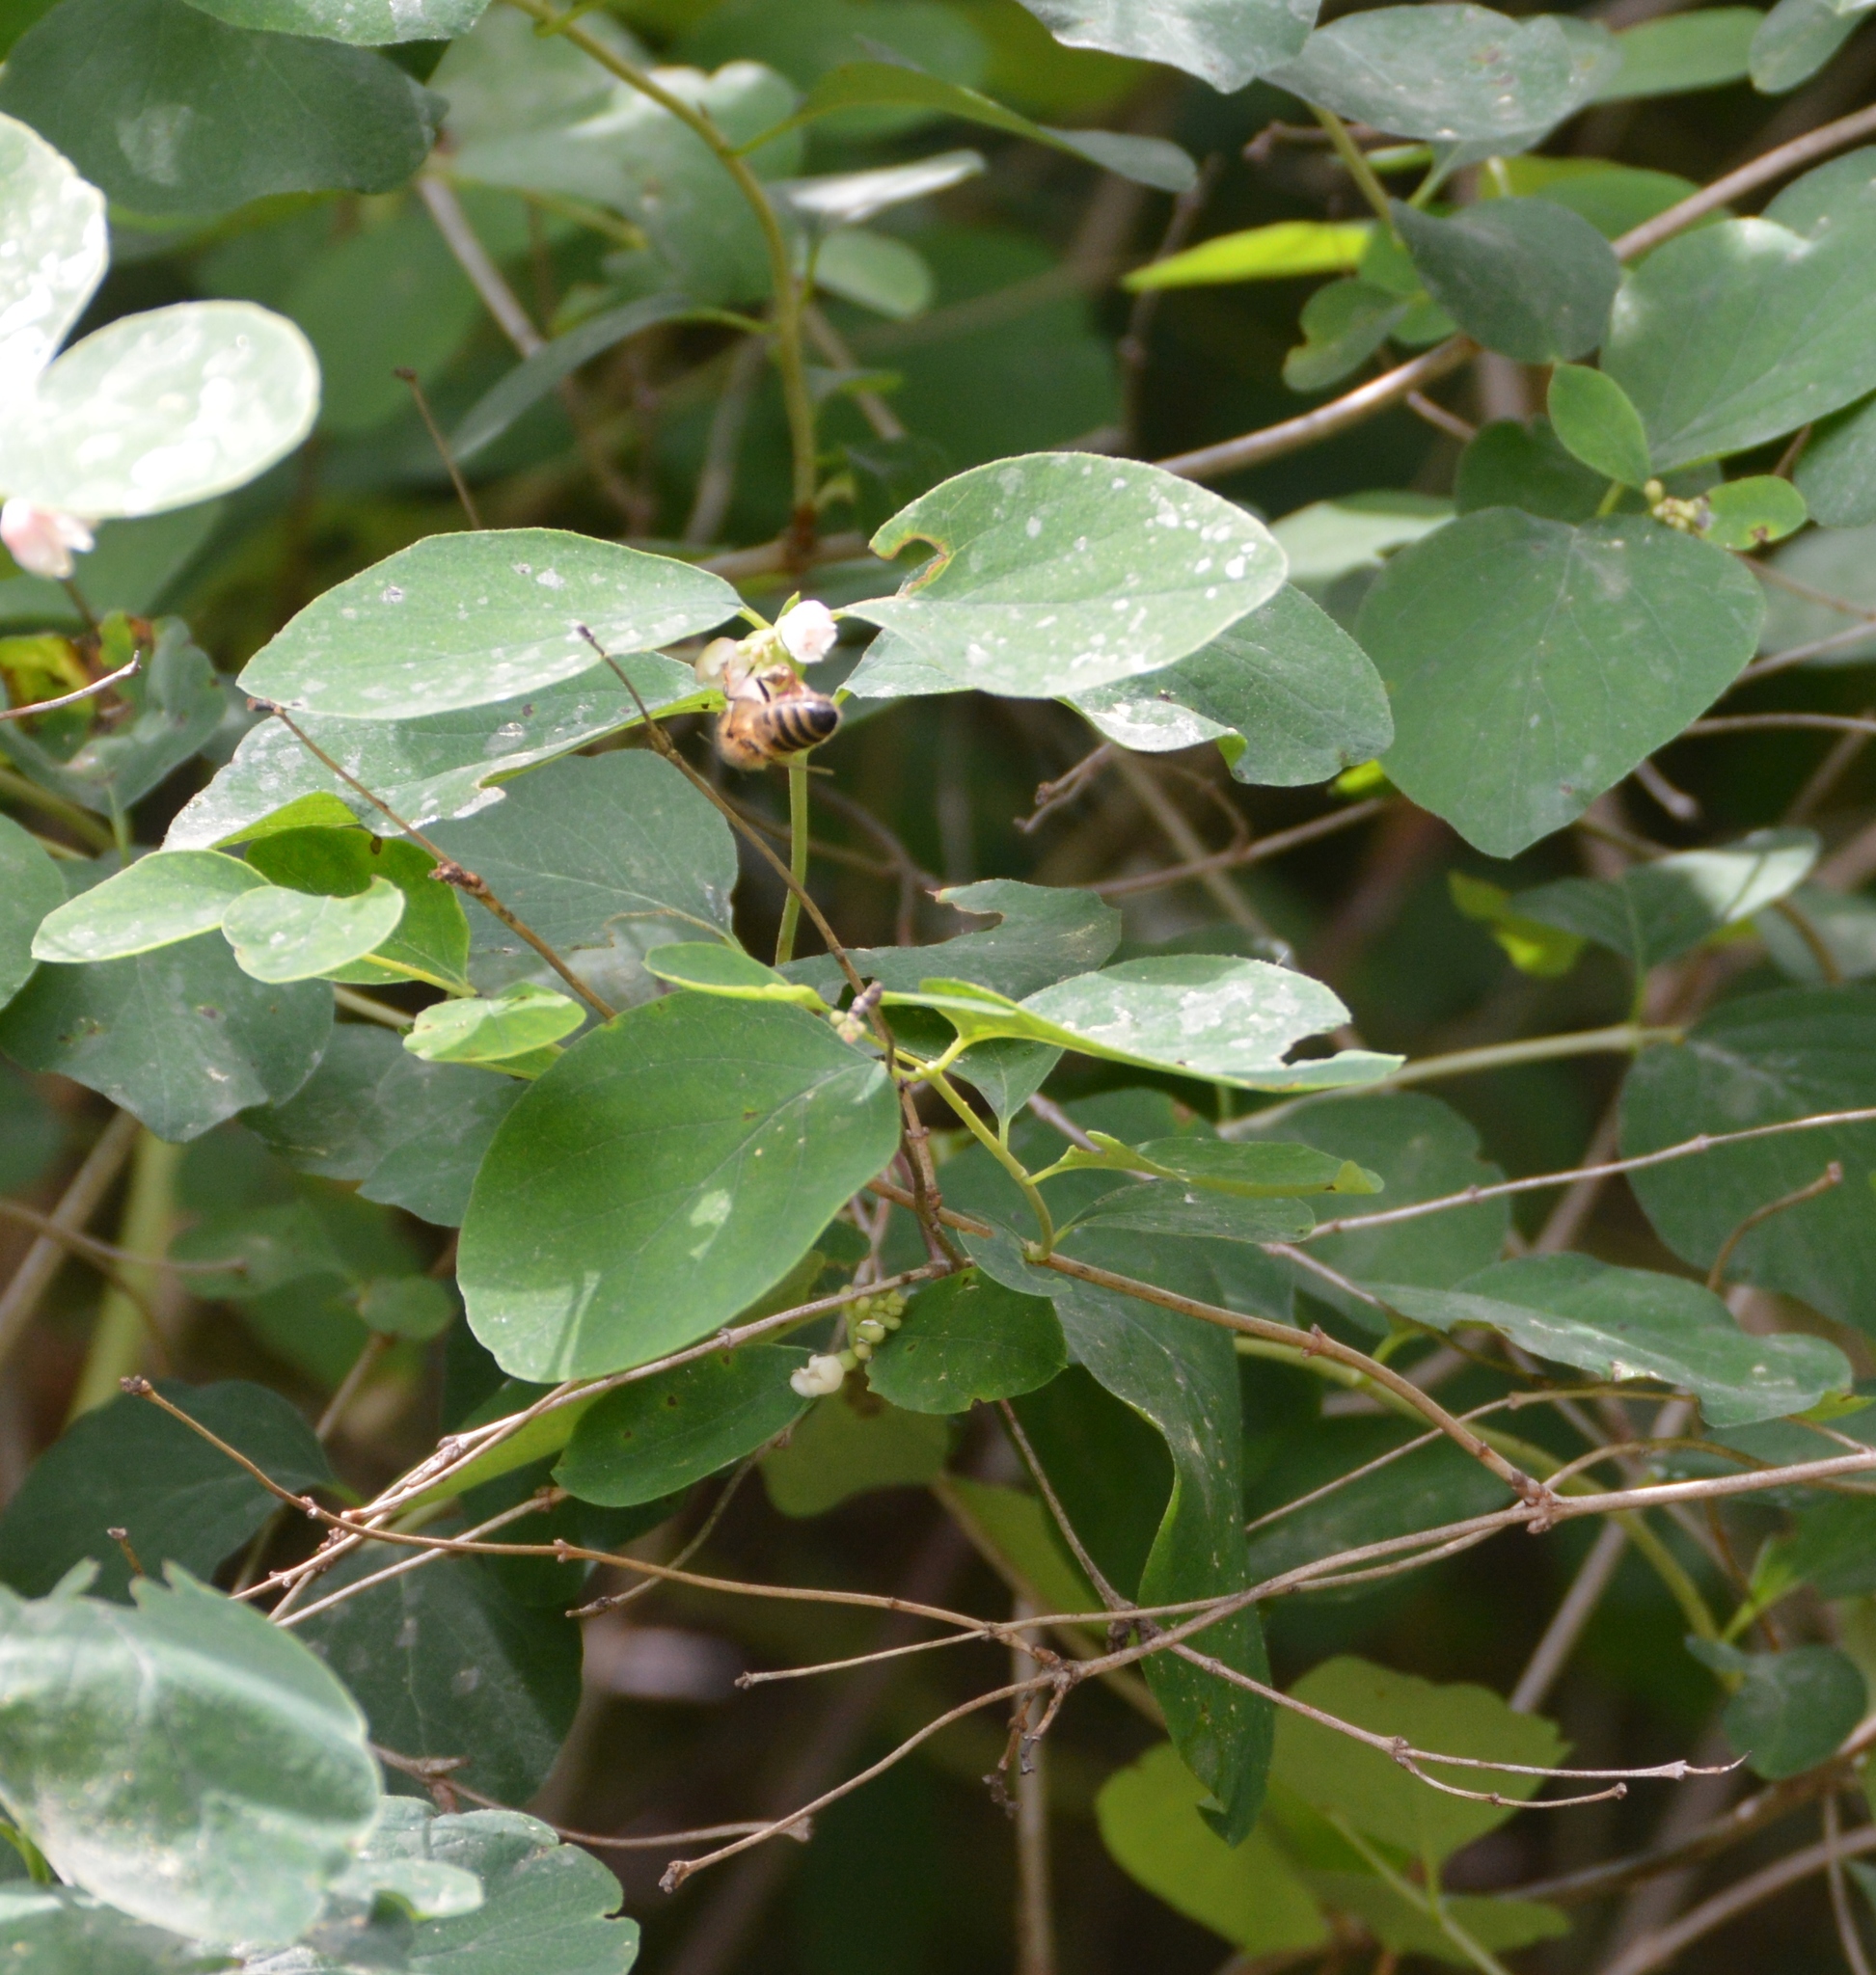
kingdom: Animalia
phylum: Arthropoda
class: Insecta
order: Hymenoptera
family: Apidae
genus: Apis
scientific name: Apis mellifera
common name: Honey bee
